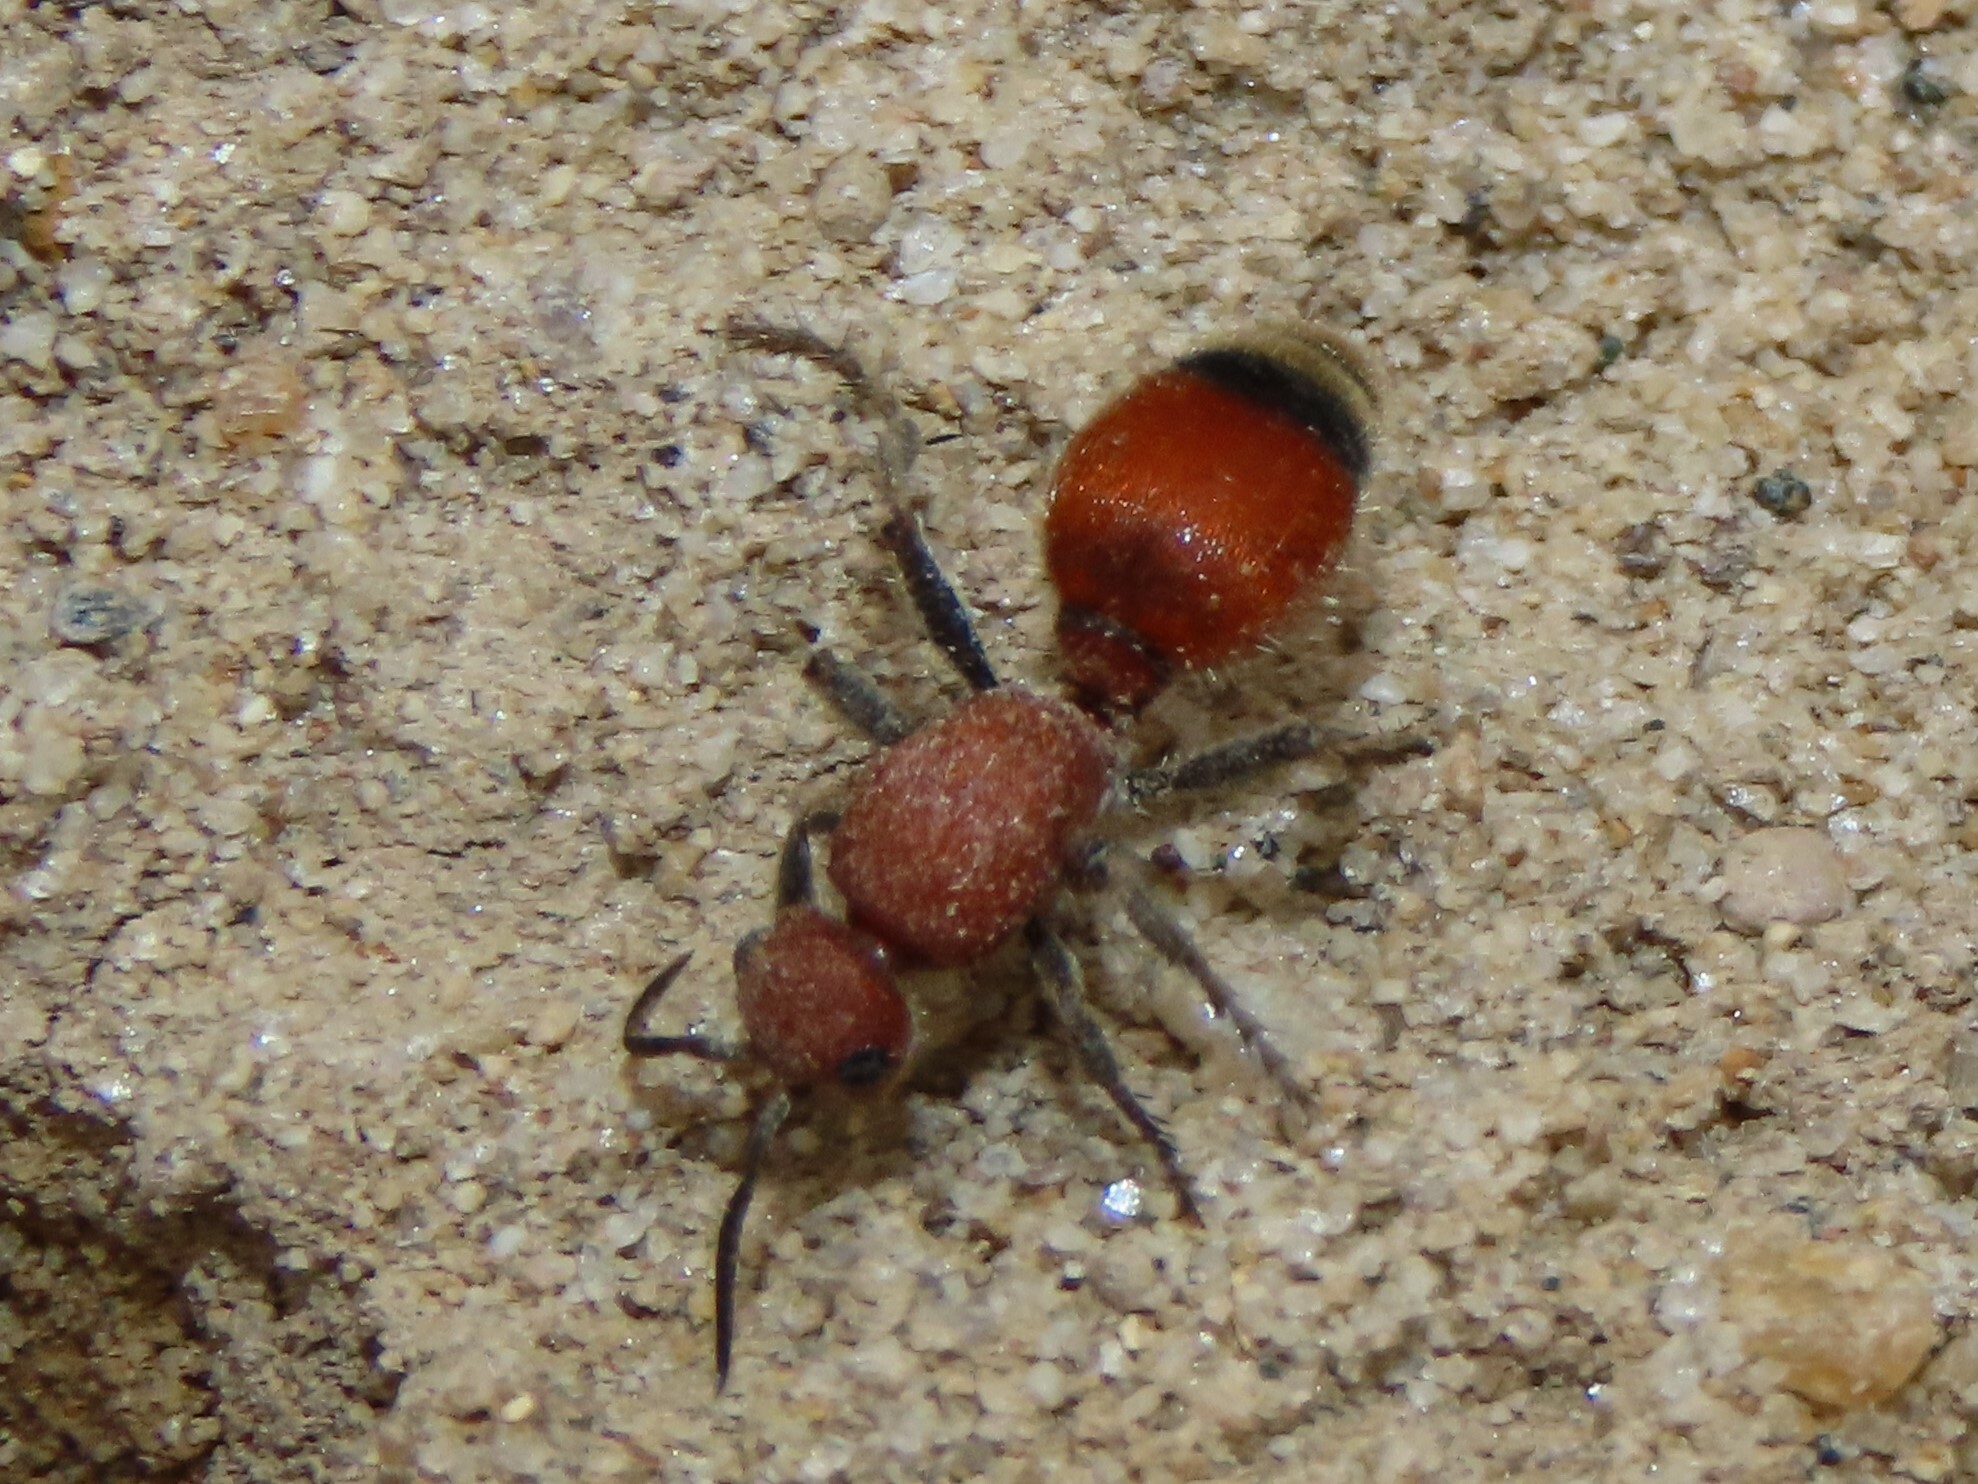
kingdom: Animalia
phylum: Arthropoda
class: Insecta
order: Hymenoptera
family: Mutillidae
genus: Dasymutilla
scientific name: Dasymutilla
